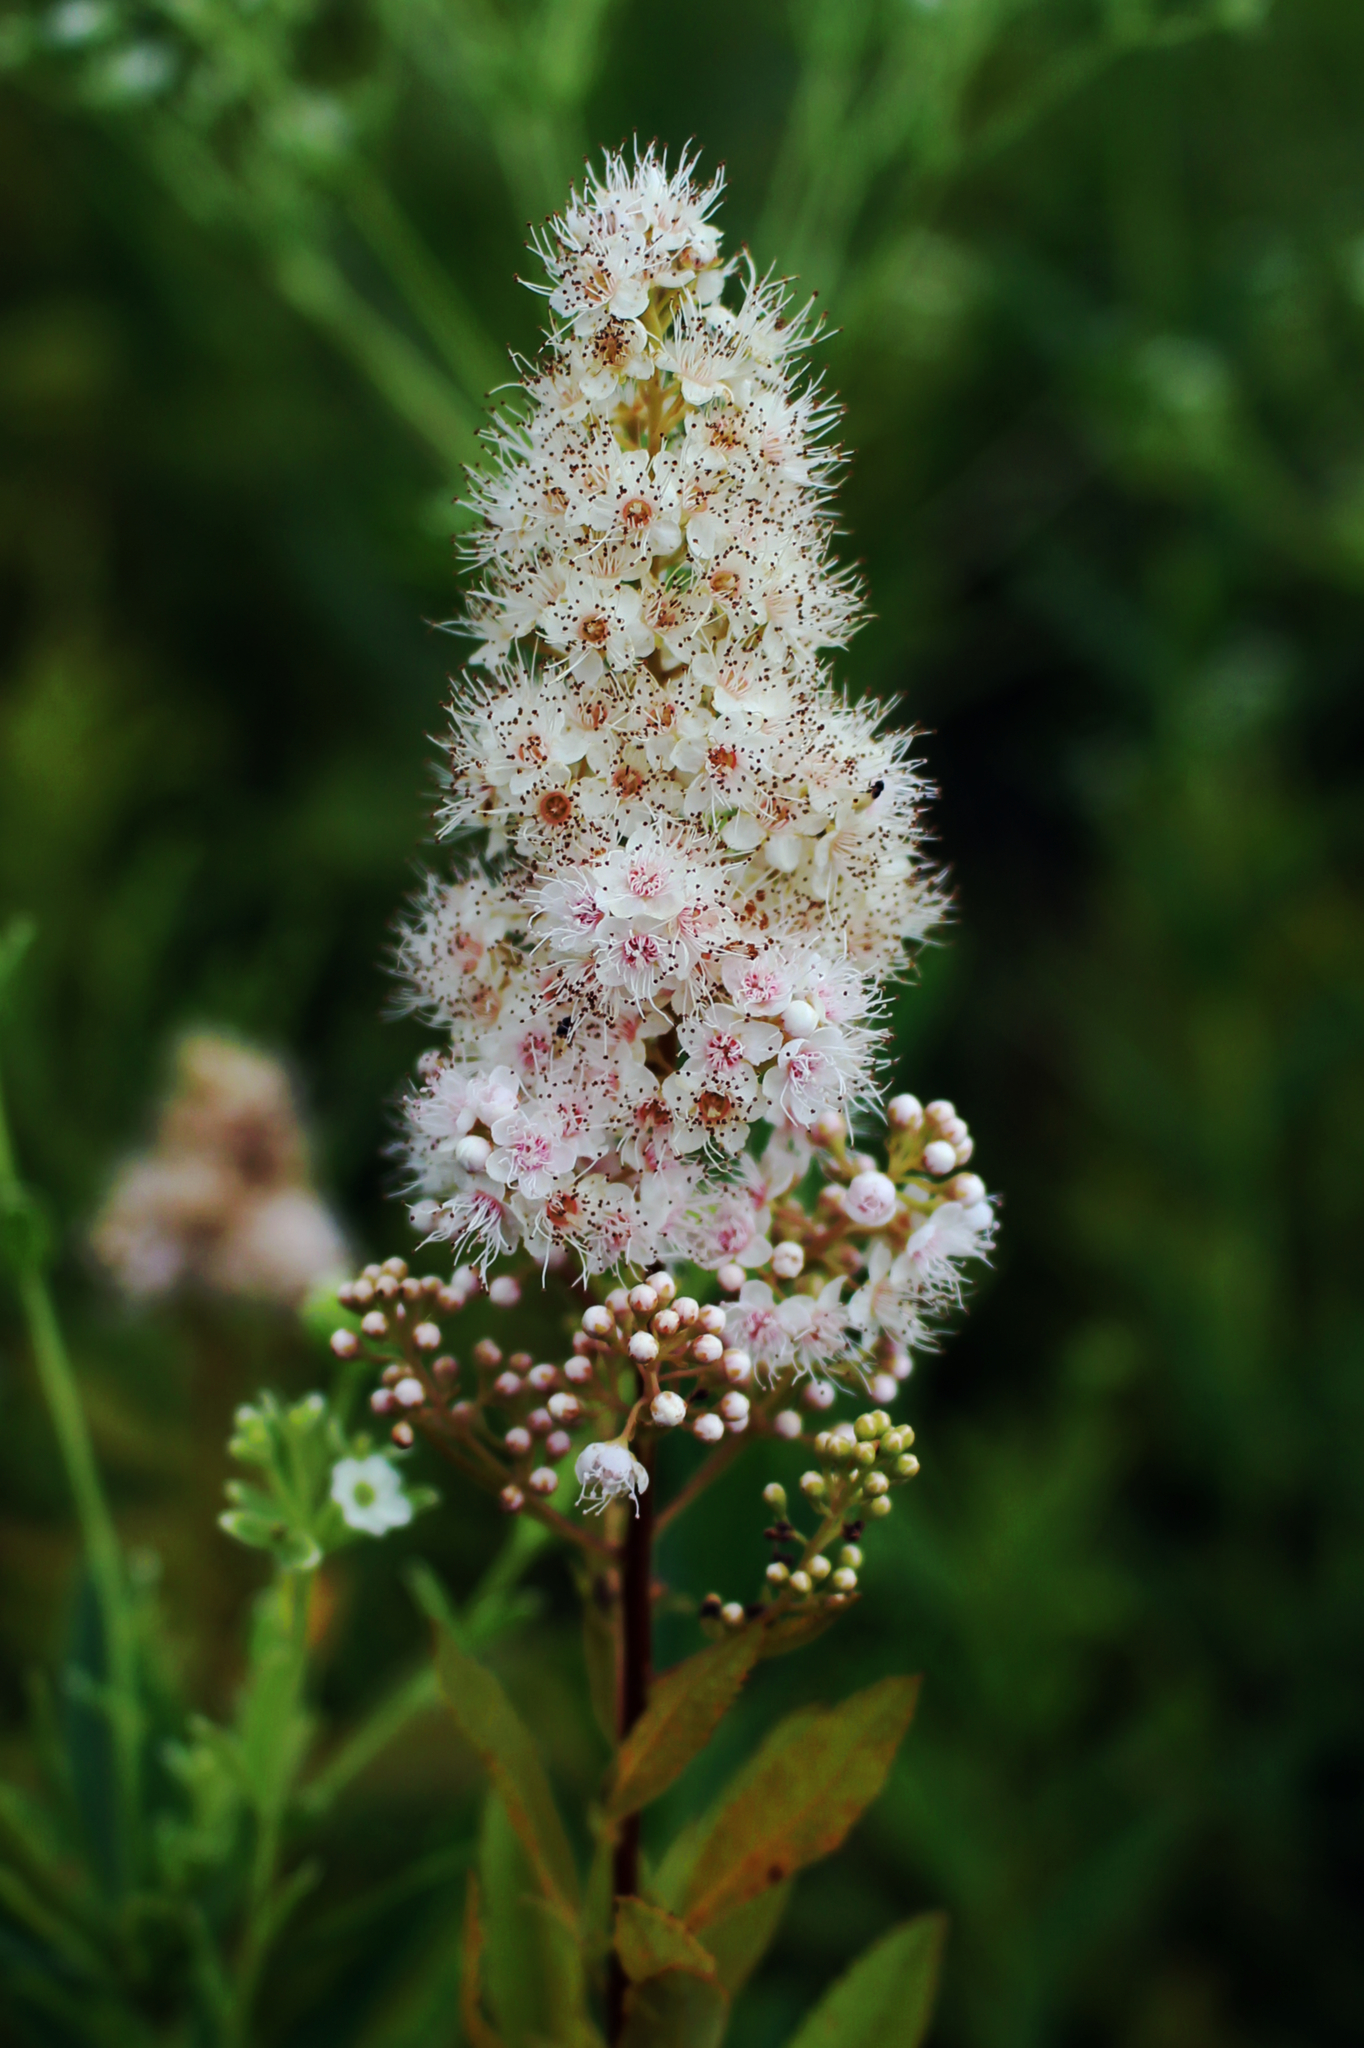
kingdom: Plantae
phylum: Tracheophyta
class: Magnoliopsida
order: Rosales
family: Rosaceae
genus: Spiraea
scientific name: Spiraea alba
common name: Pale bridewort
